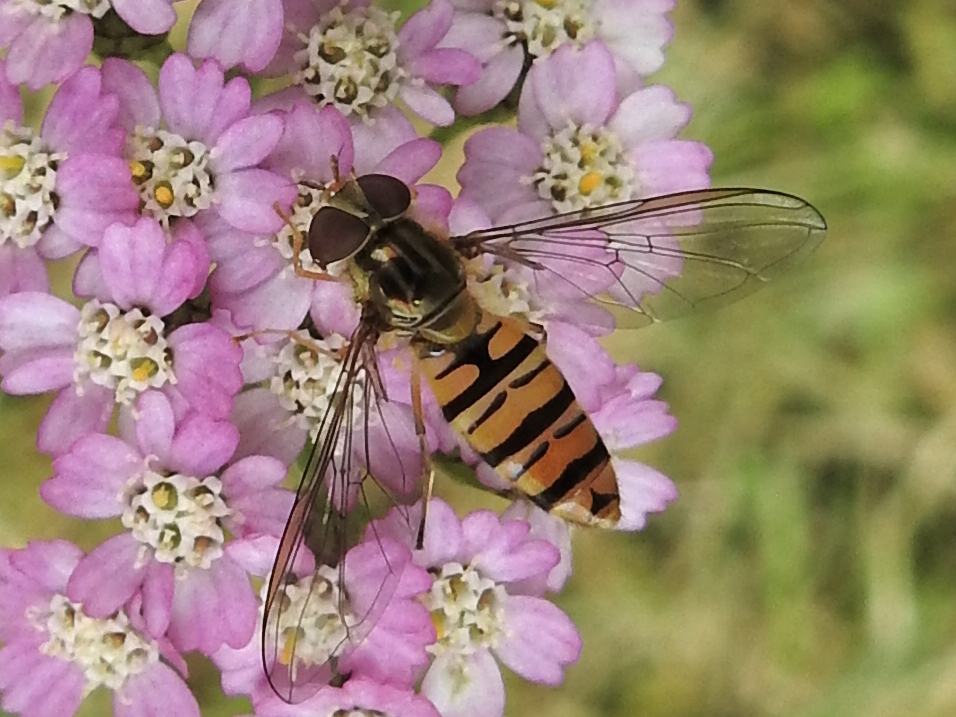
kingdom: Animalia
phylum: Arthropoda
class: Insecta
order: Diptera
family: Syrphidae
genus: Episyrphus
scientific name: Episyrphus balteatus
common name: Marmalade hoverfly
